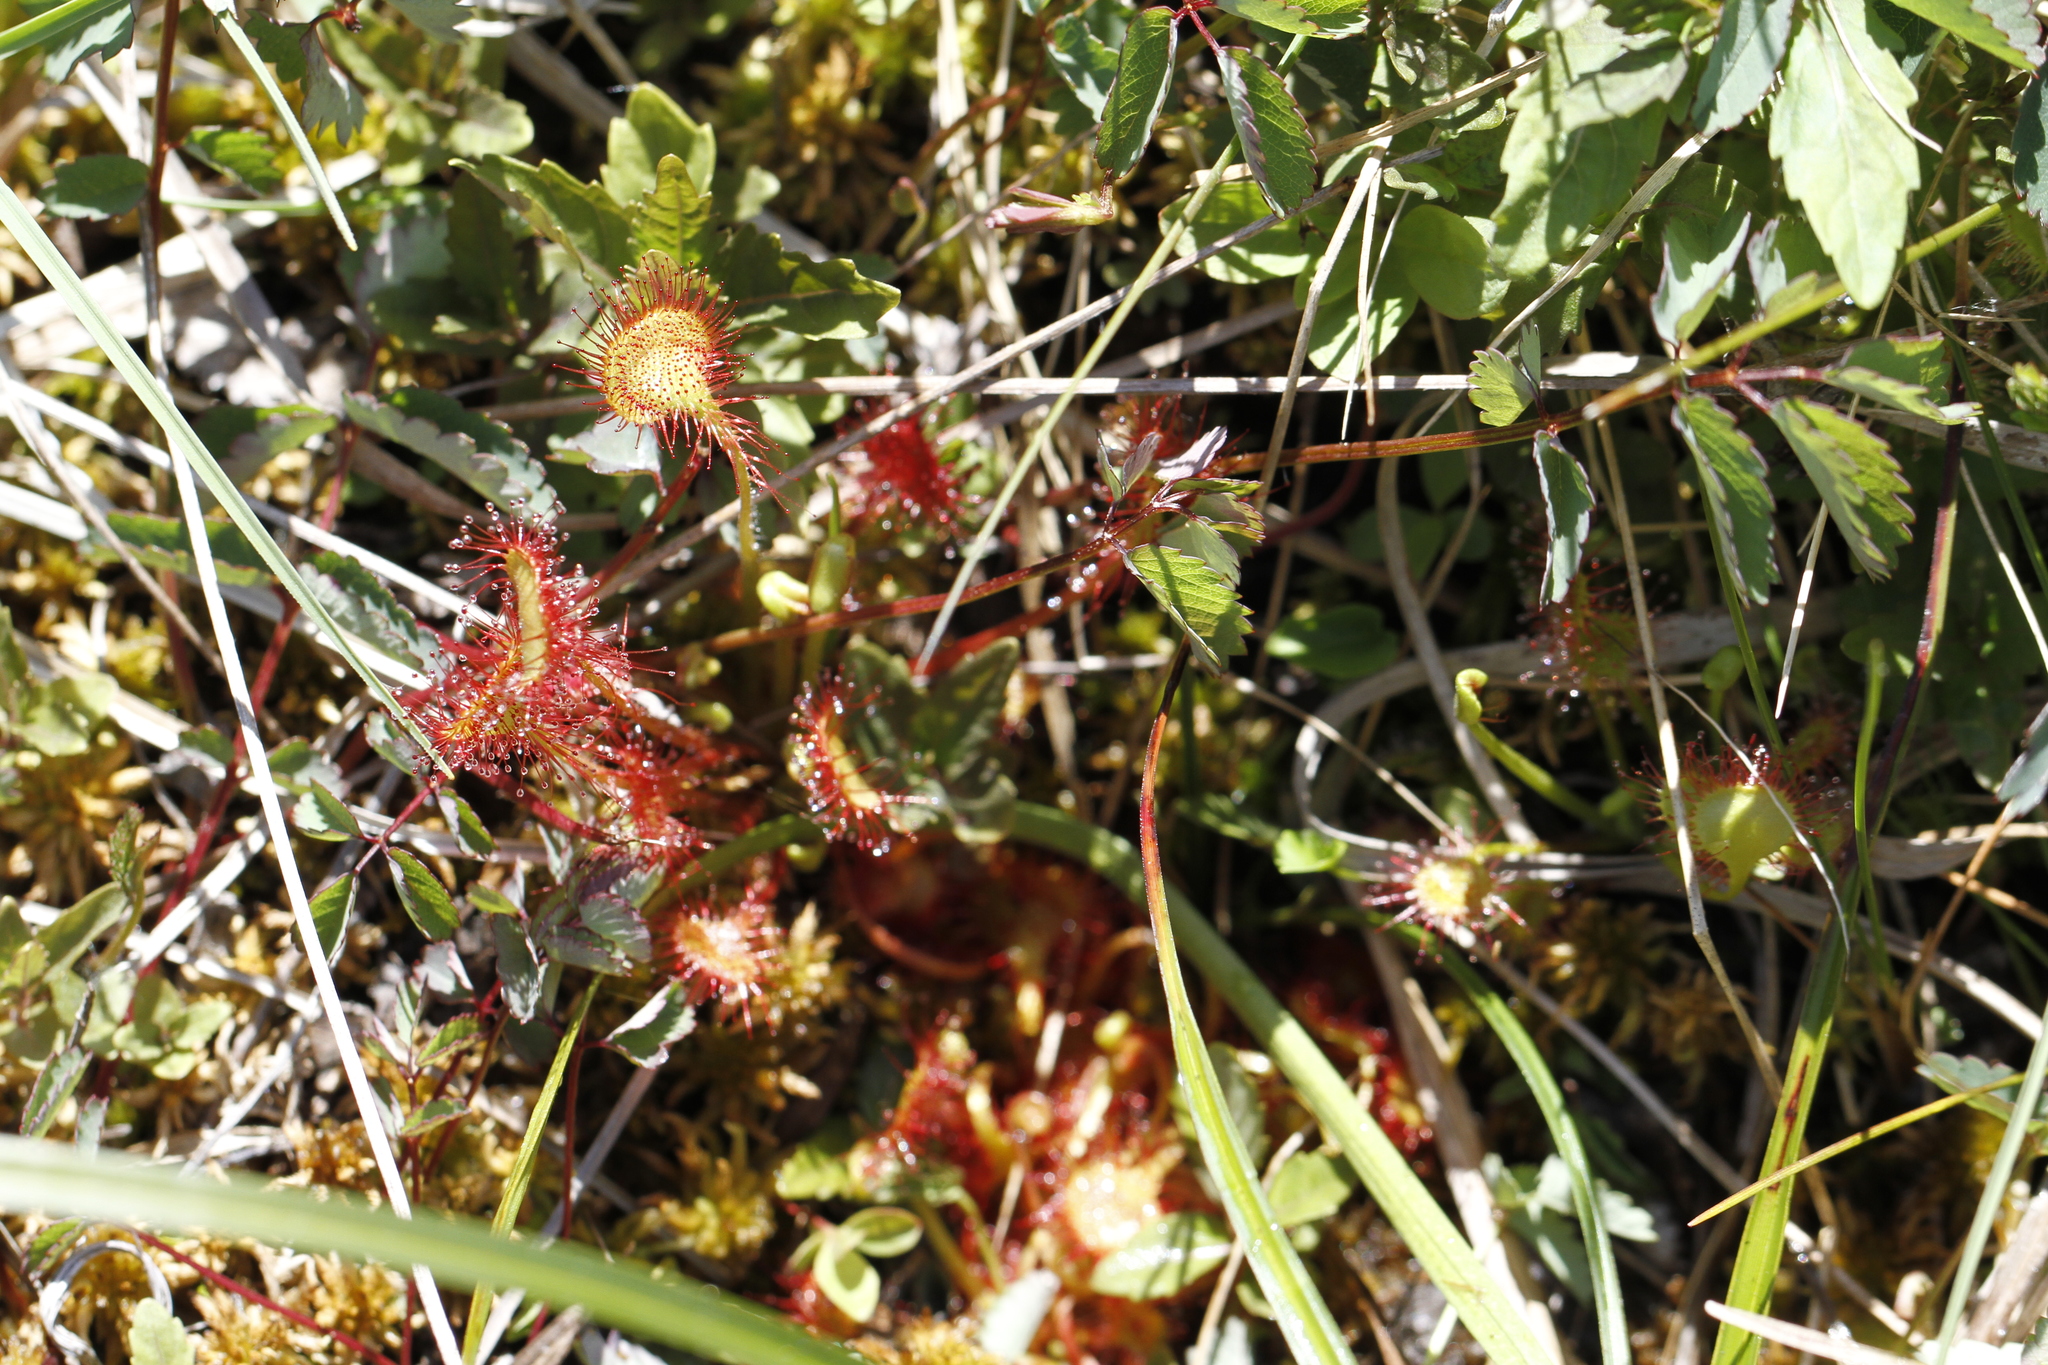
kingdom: Plantae
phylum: Tracheophyta
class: Magnoliopsida
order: Caryophyllales
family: Droseraceae
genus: Drosera
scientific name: Drosera rotundifolia
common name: Round-leaved sundew
